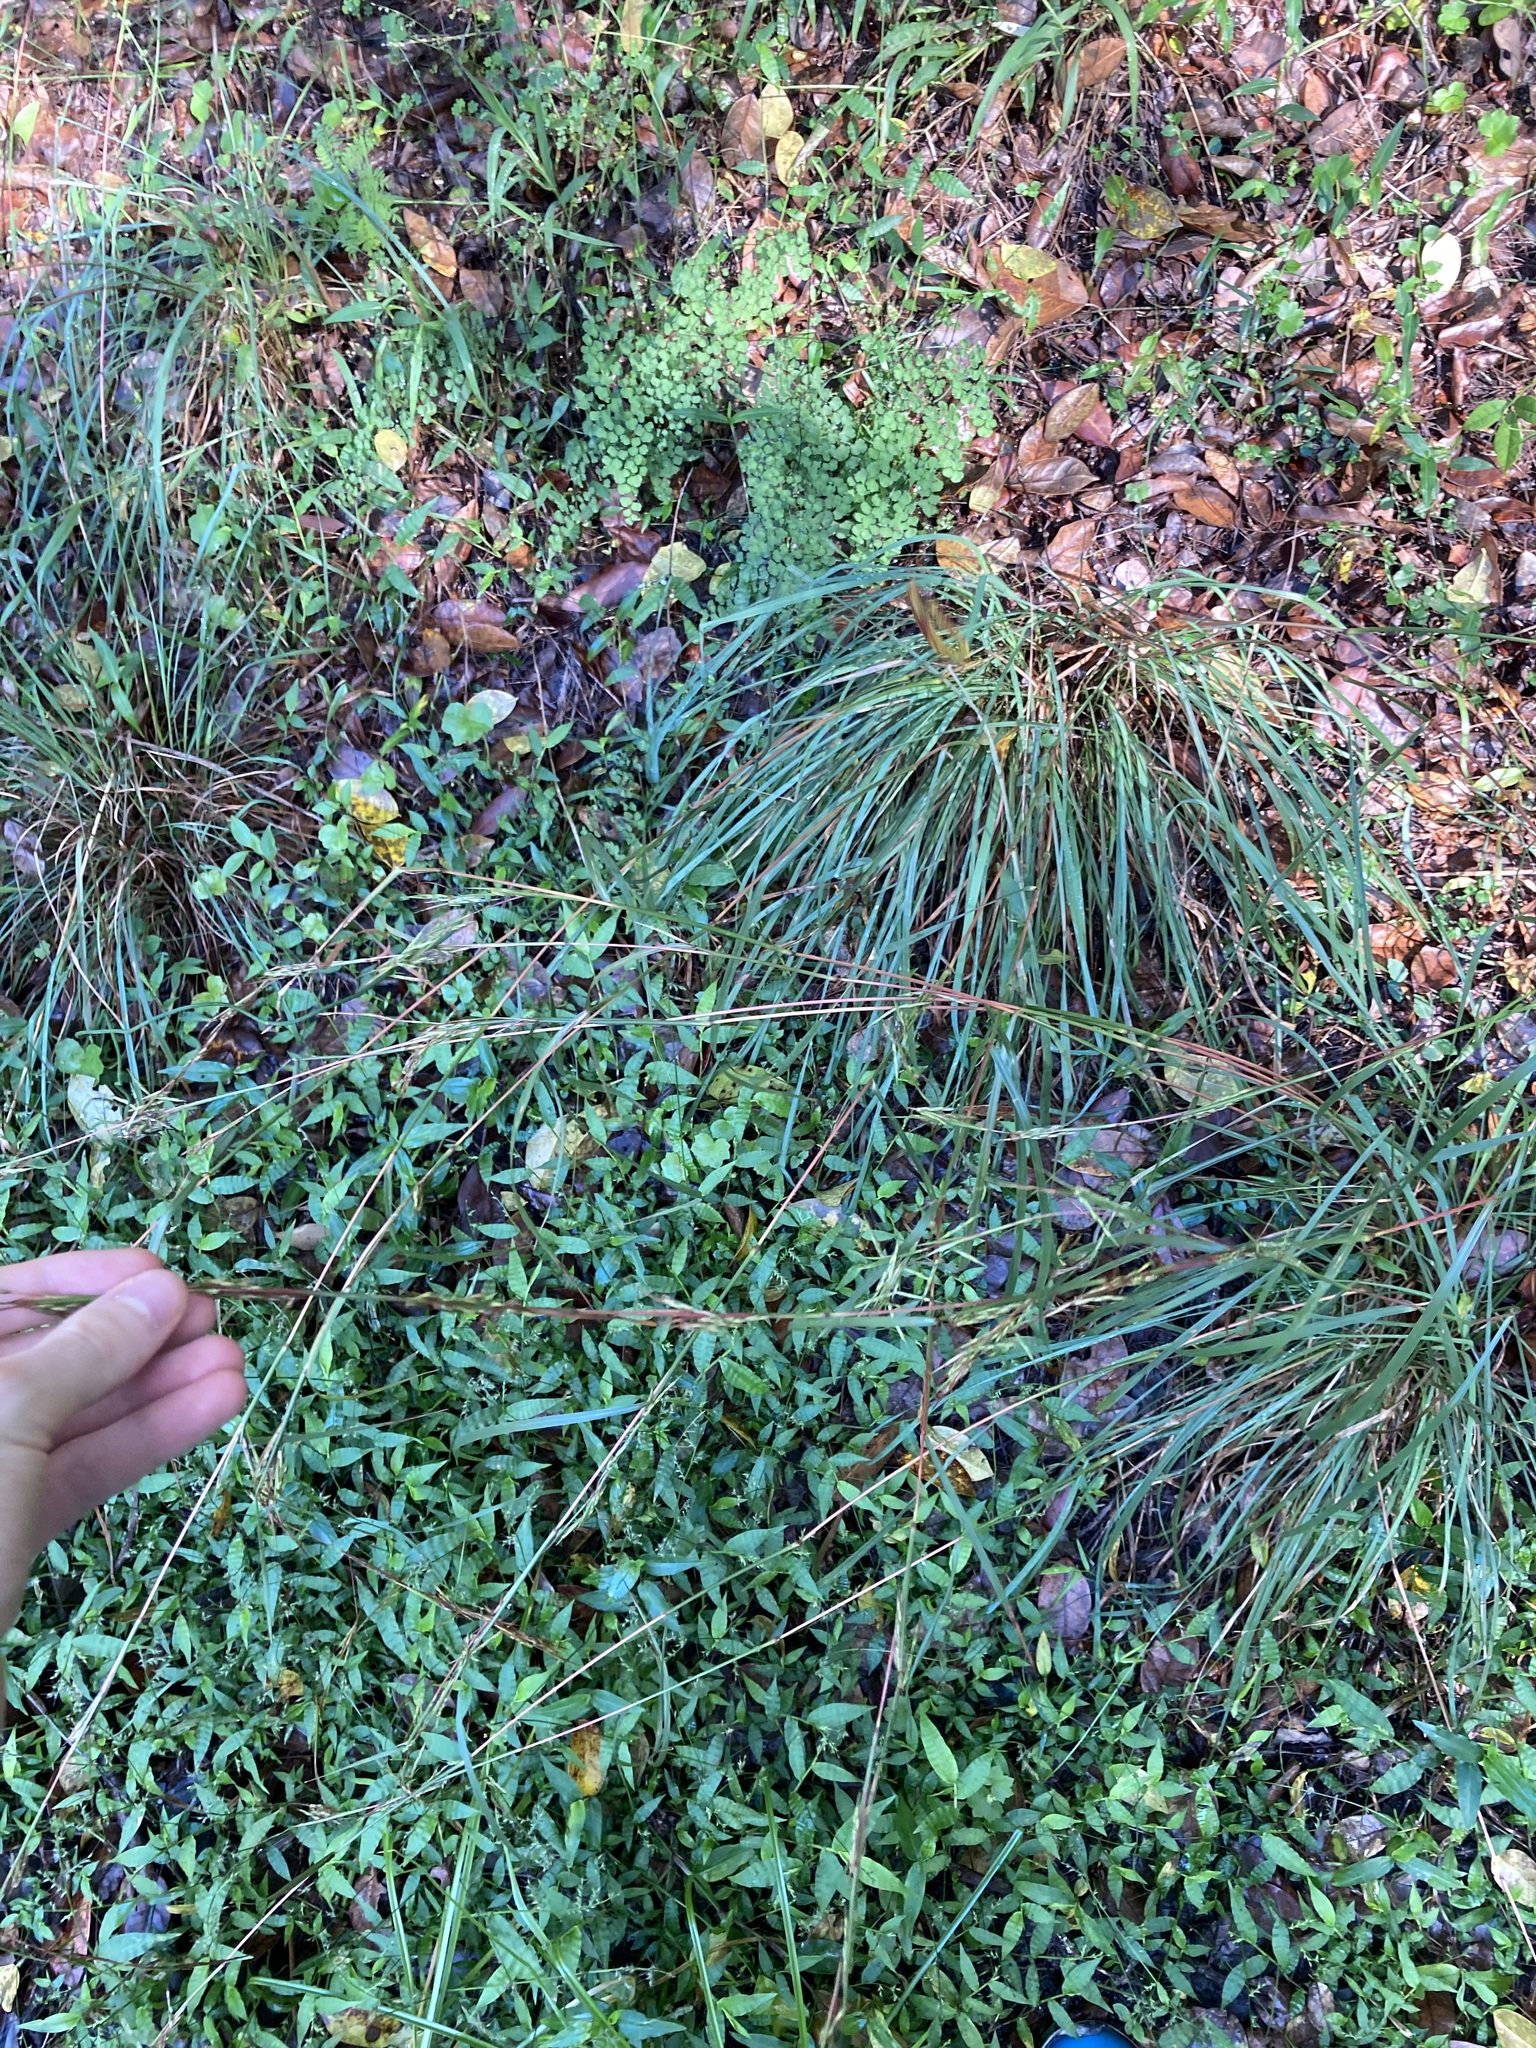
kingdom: Plantae
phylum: Tracheophyta
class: Liliopsida
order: Poales
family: Poaceae
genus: Cymbopogon
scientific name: Cymbopogon refractus
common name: Barbwire grass
